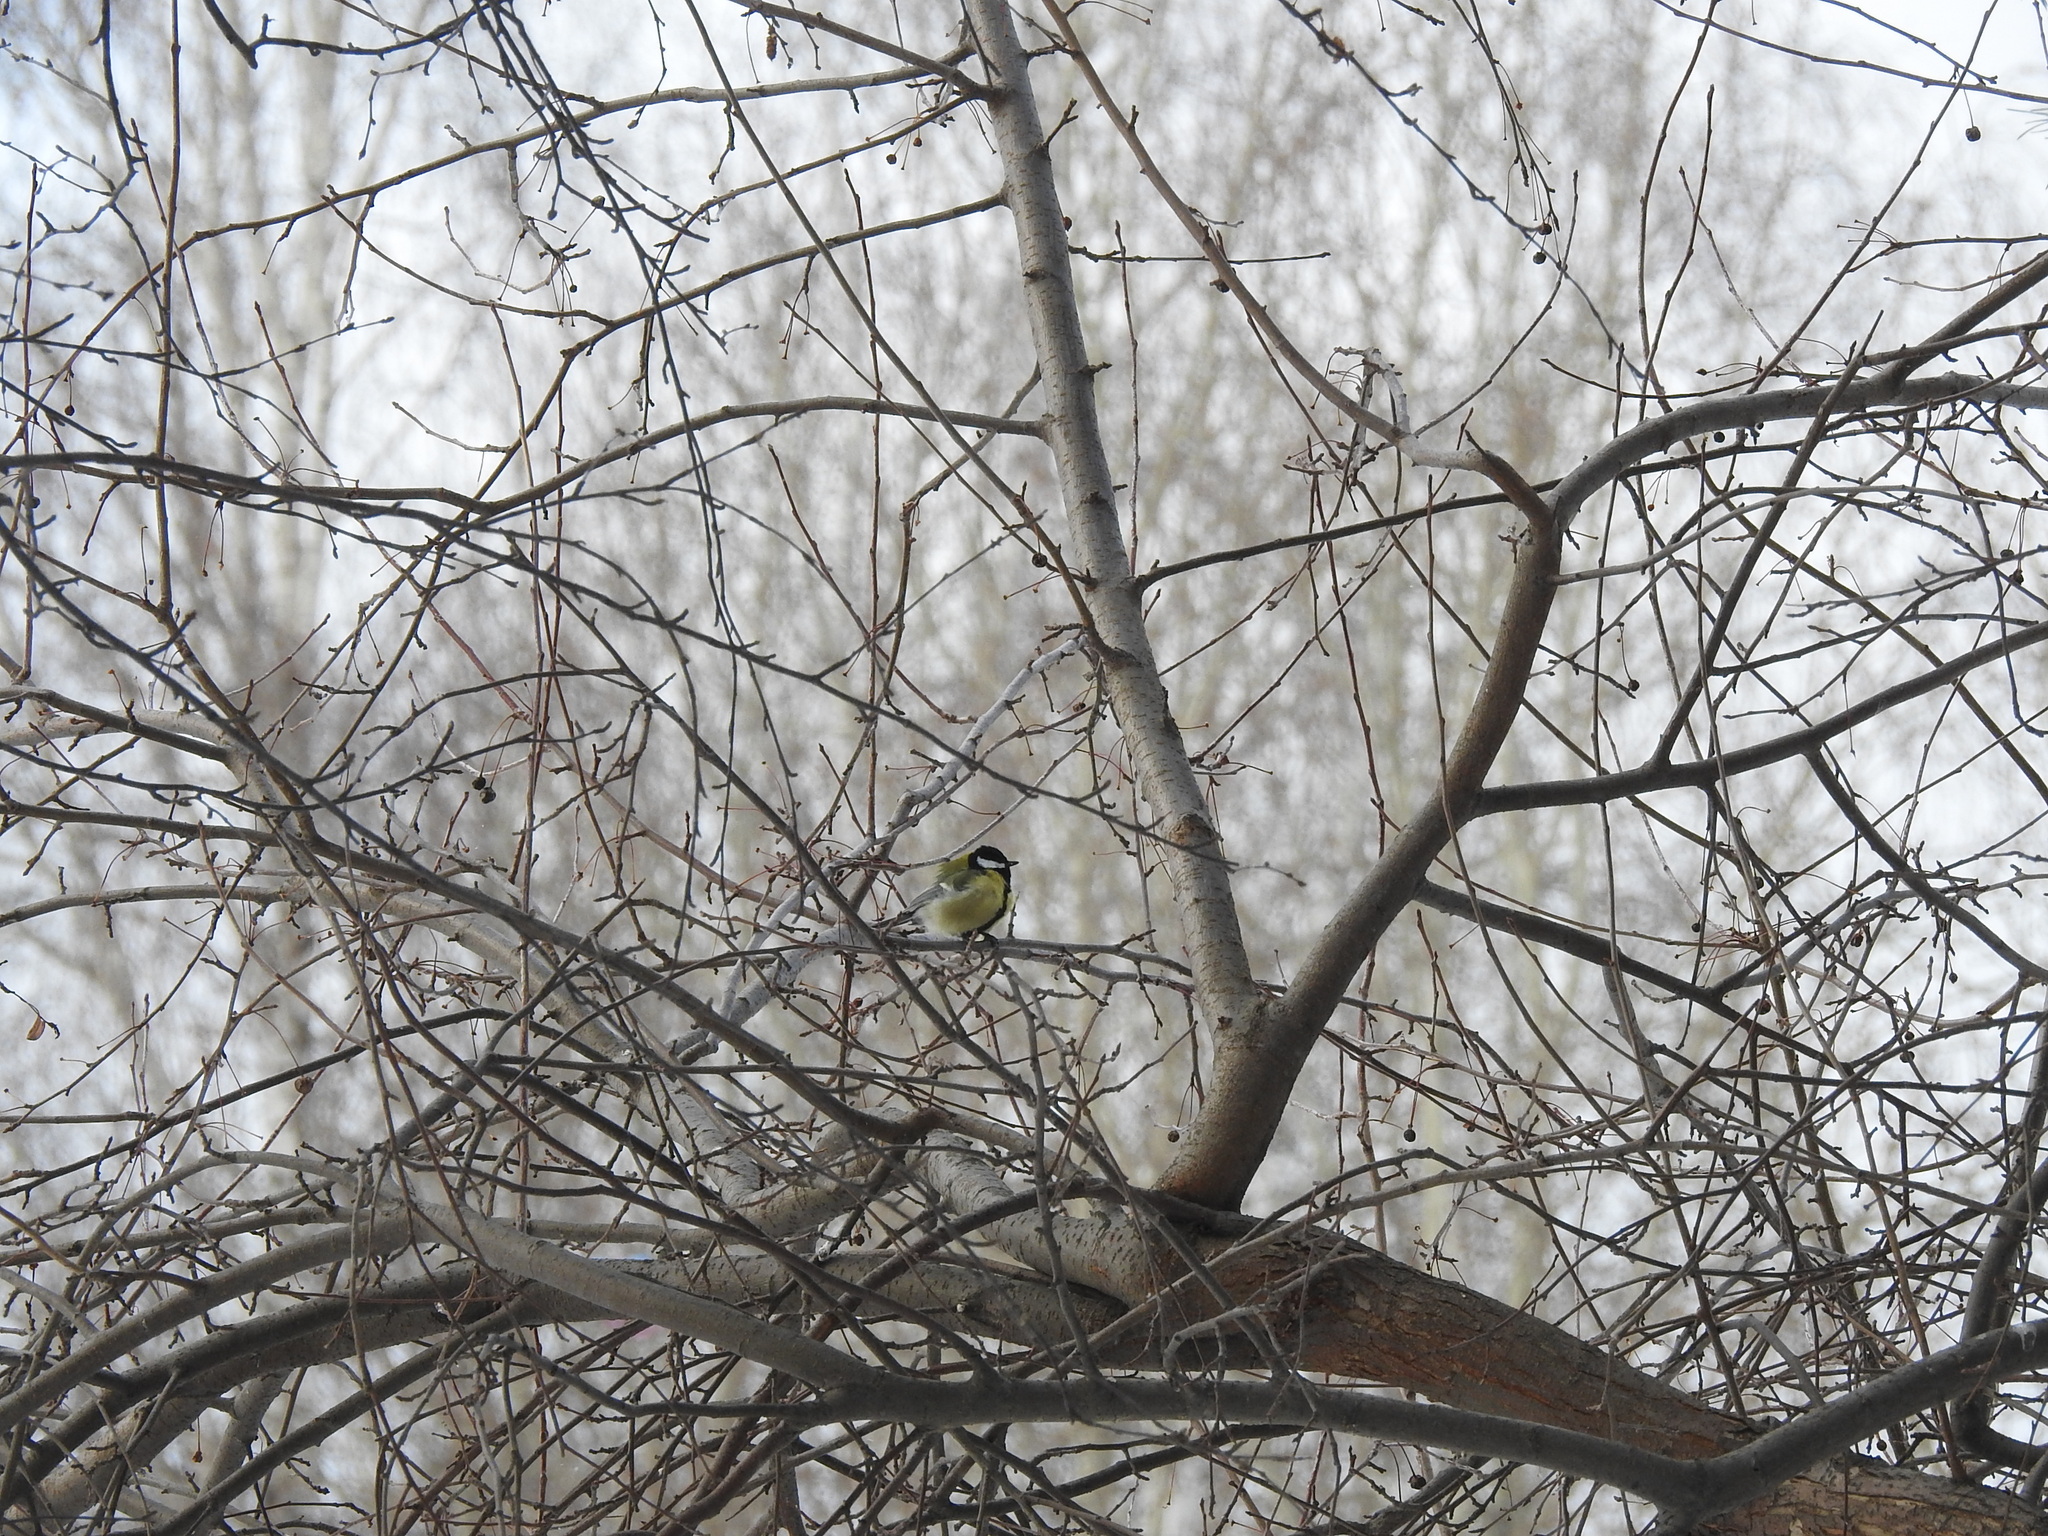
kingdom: Animalia
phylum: Chordata
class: Aves
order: Passeriformes
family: Paridae
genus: Parus
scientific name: Parus major
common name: Great tit
